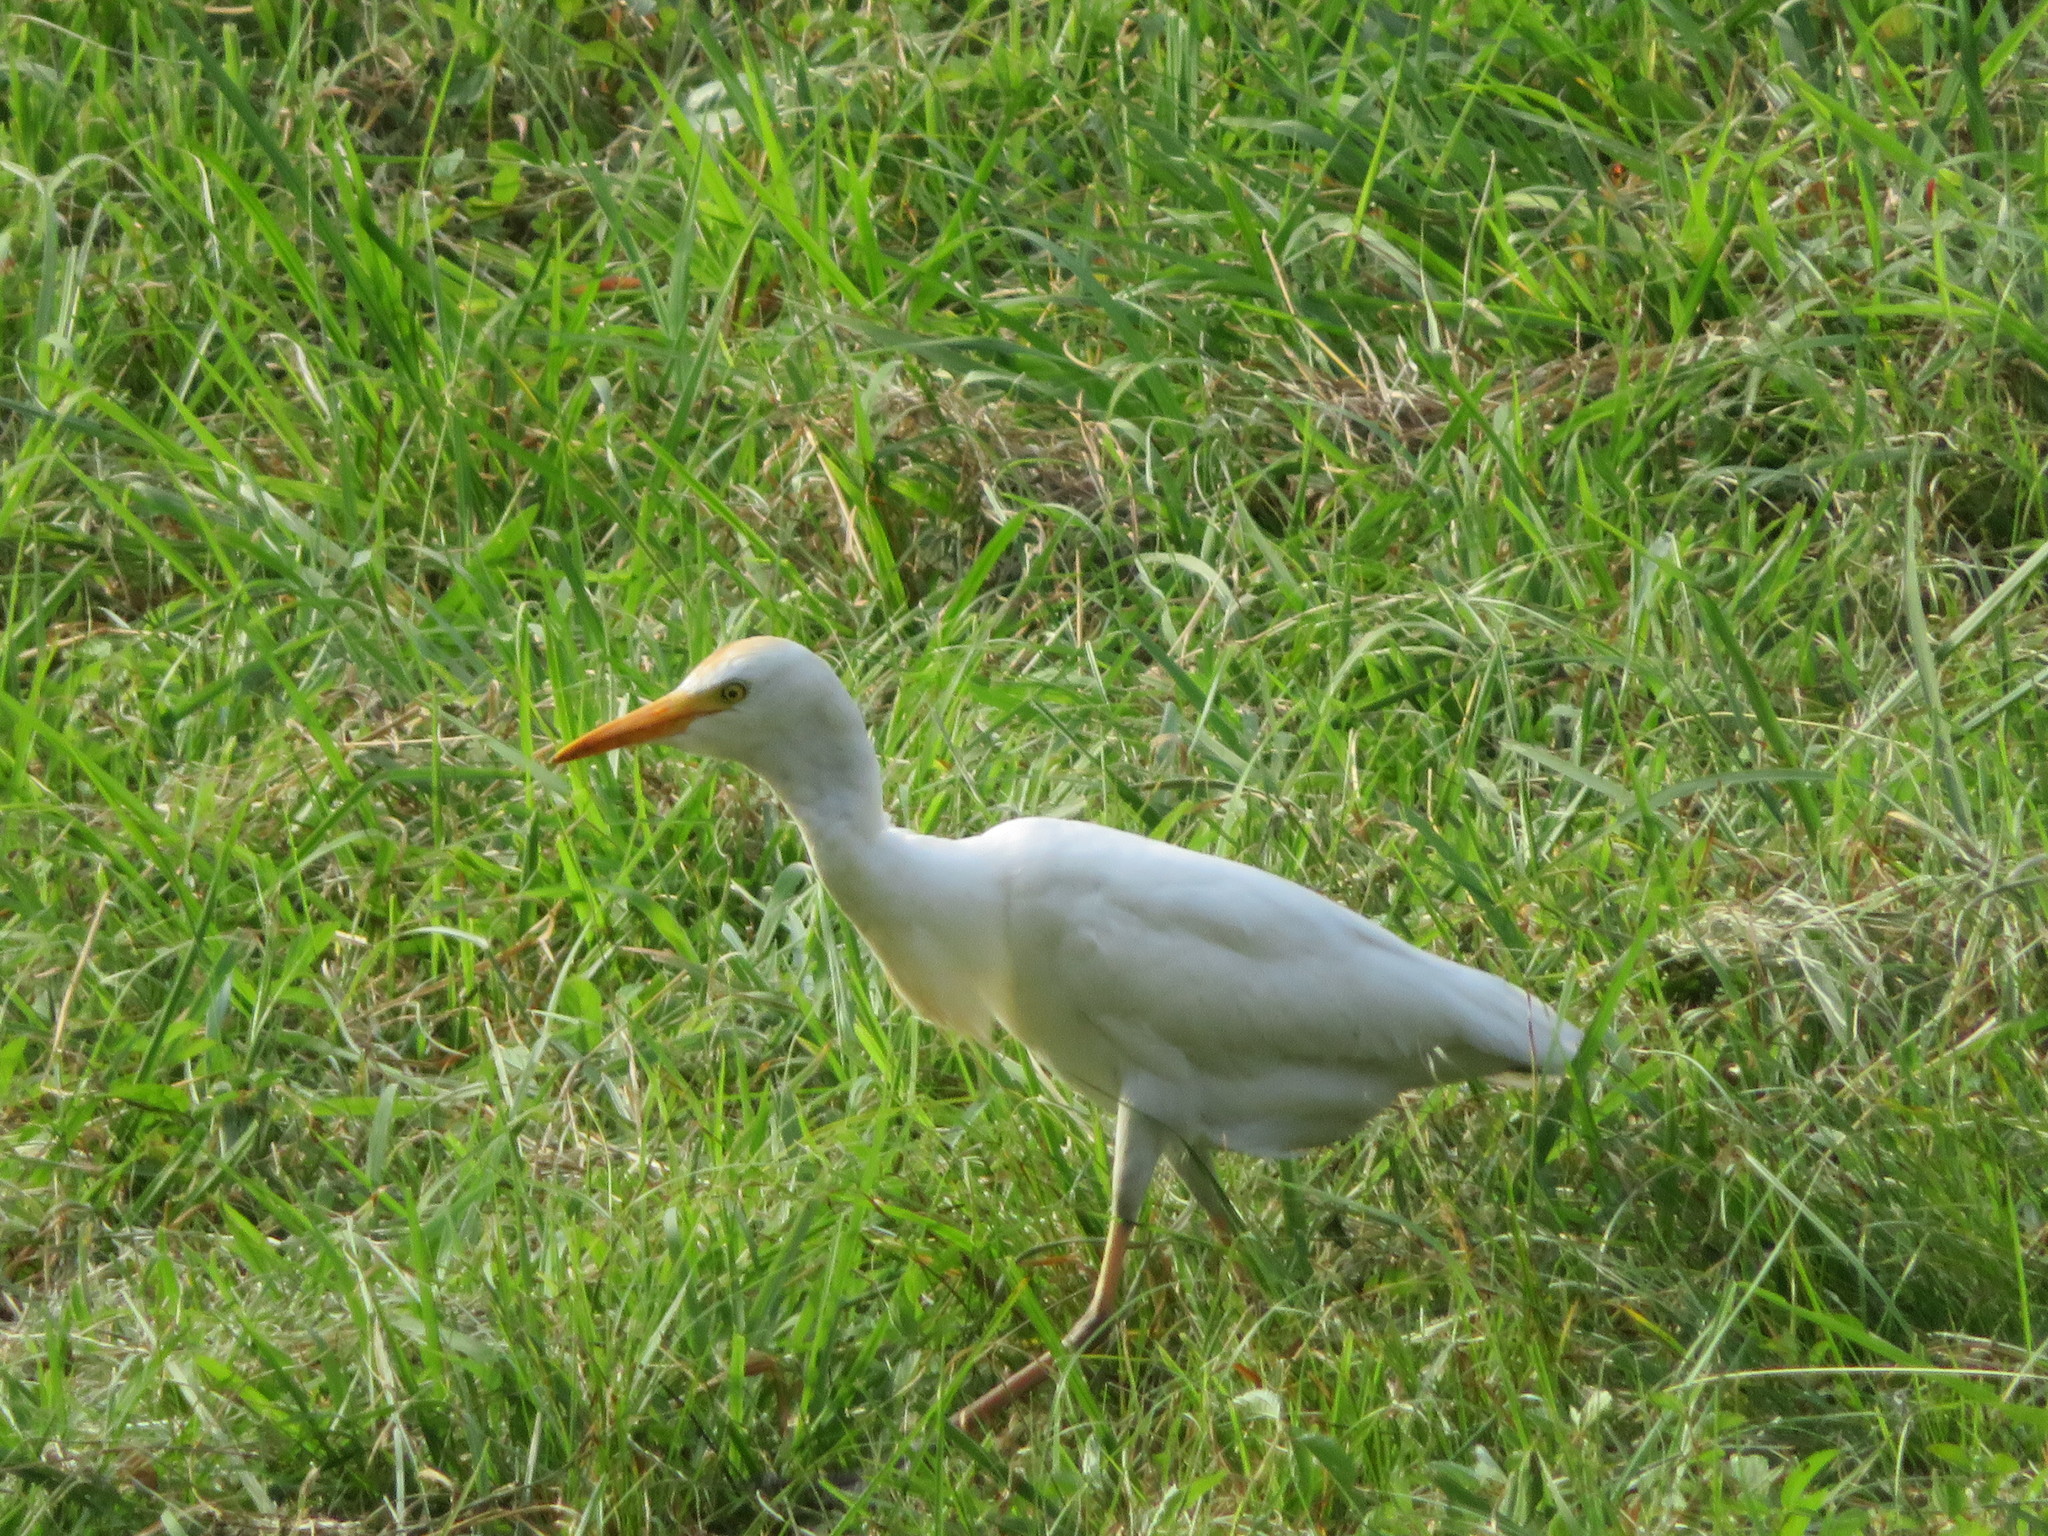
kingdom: Animalia
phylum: Chordata
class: Aves
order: Pelecaniformes
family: Ardeidae
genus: Bubulcus
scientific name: Bubulcus ibis
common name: Cattle egret
